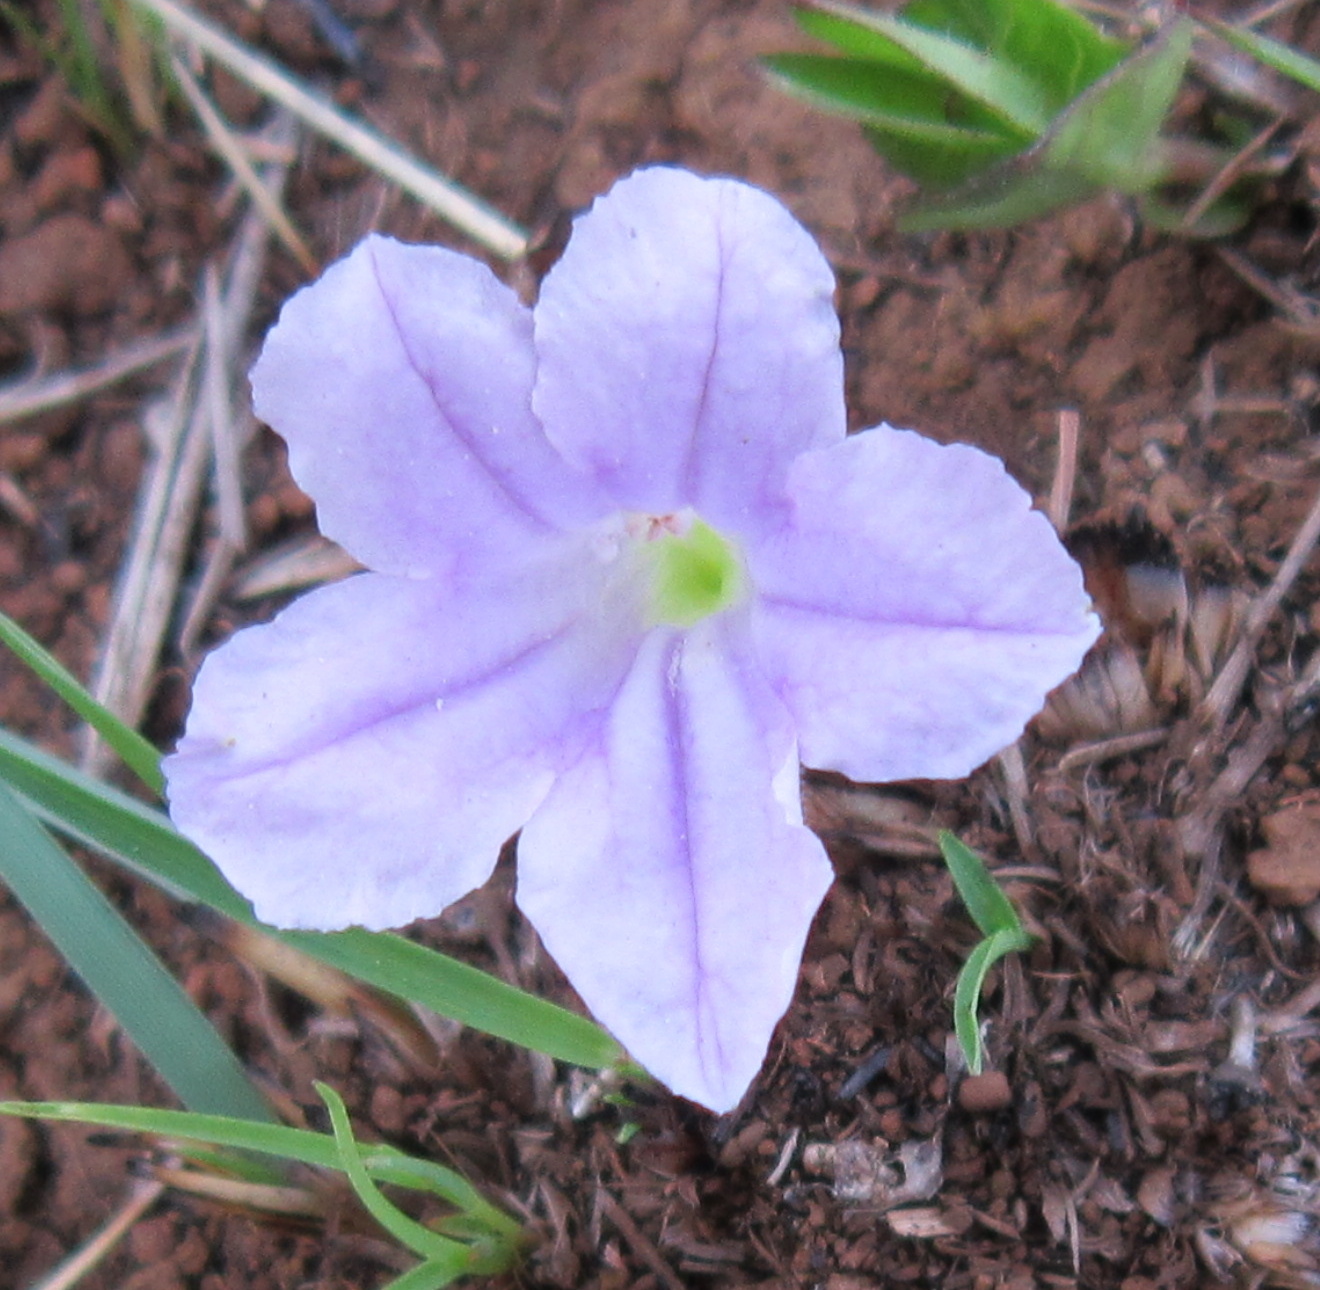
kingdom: Plantae
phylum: Tracheophyta
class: Magnoliopsida
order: Lamiales
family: Acanthaceae
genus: Ruellia
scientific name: Ruellia cordata
